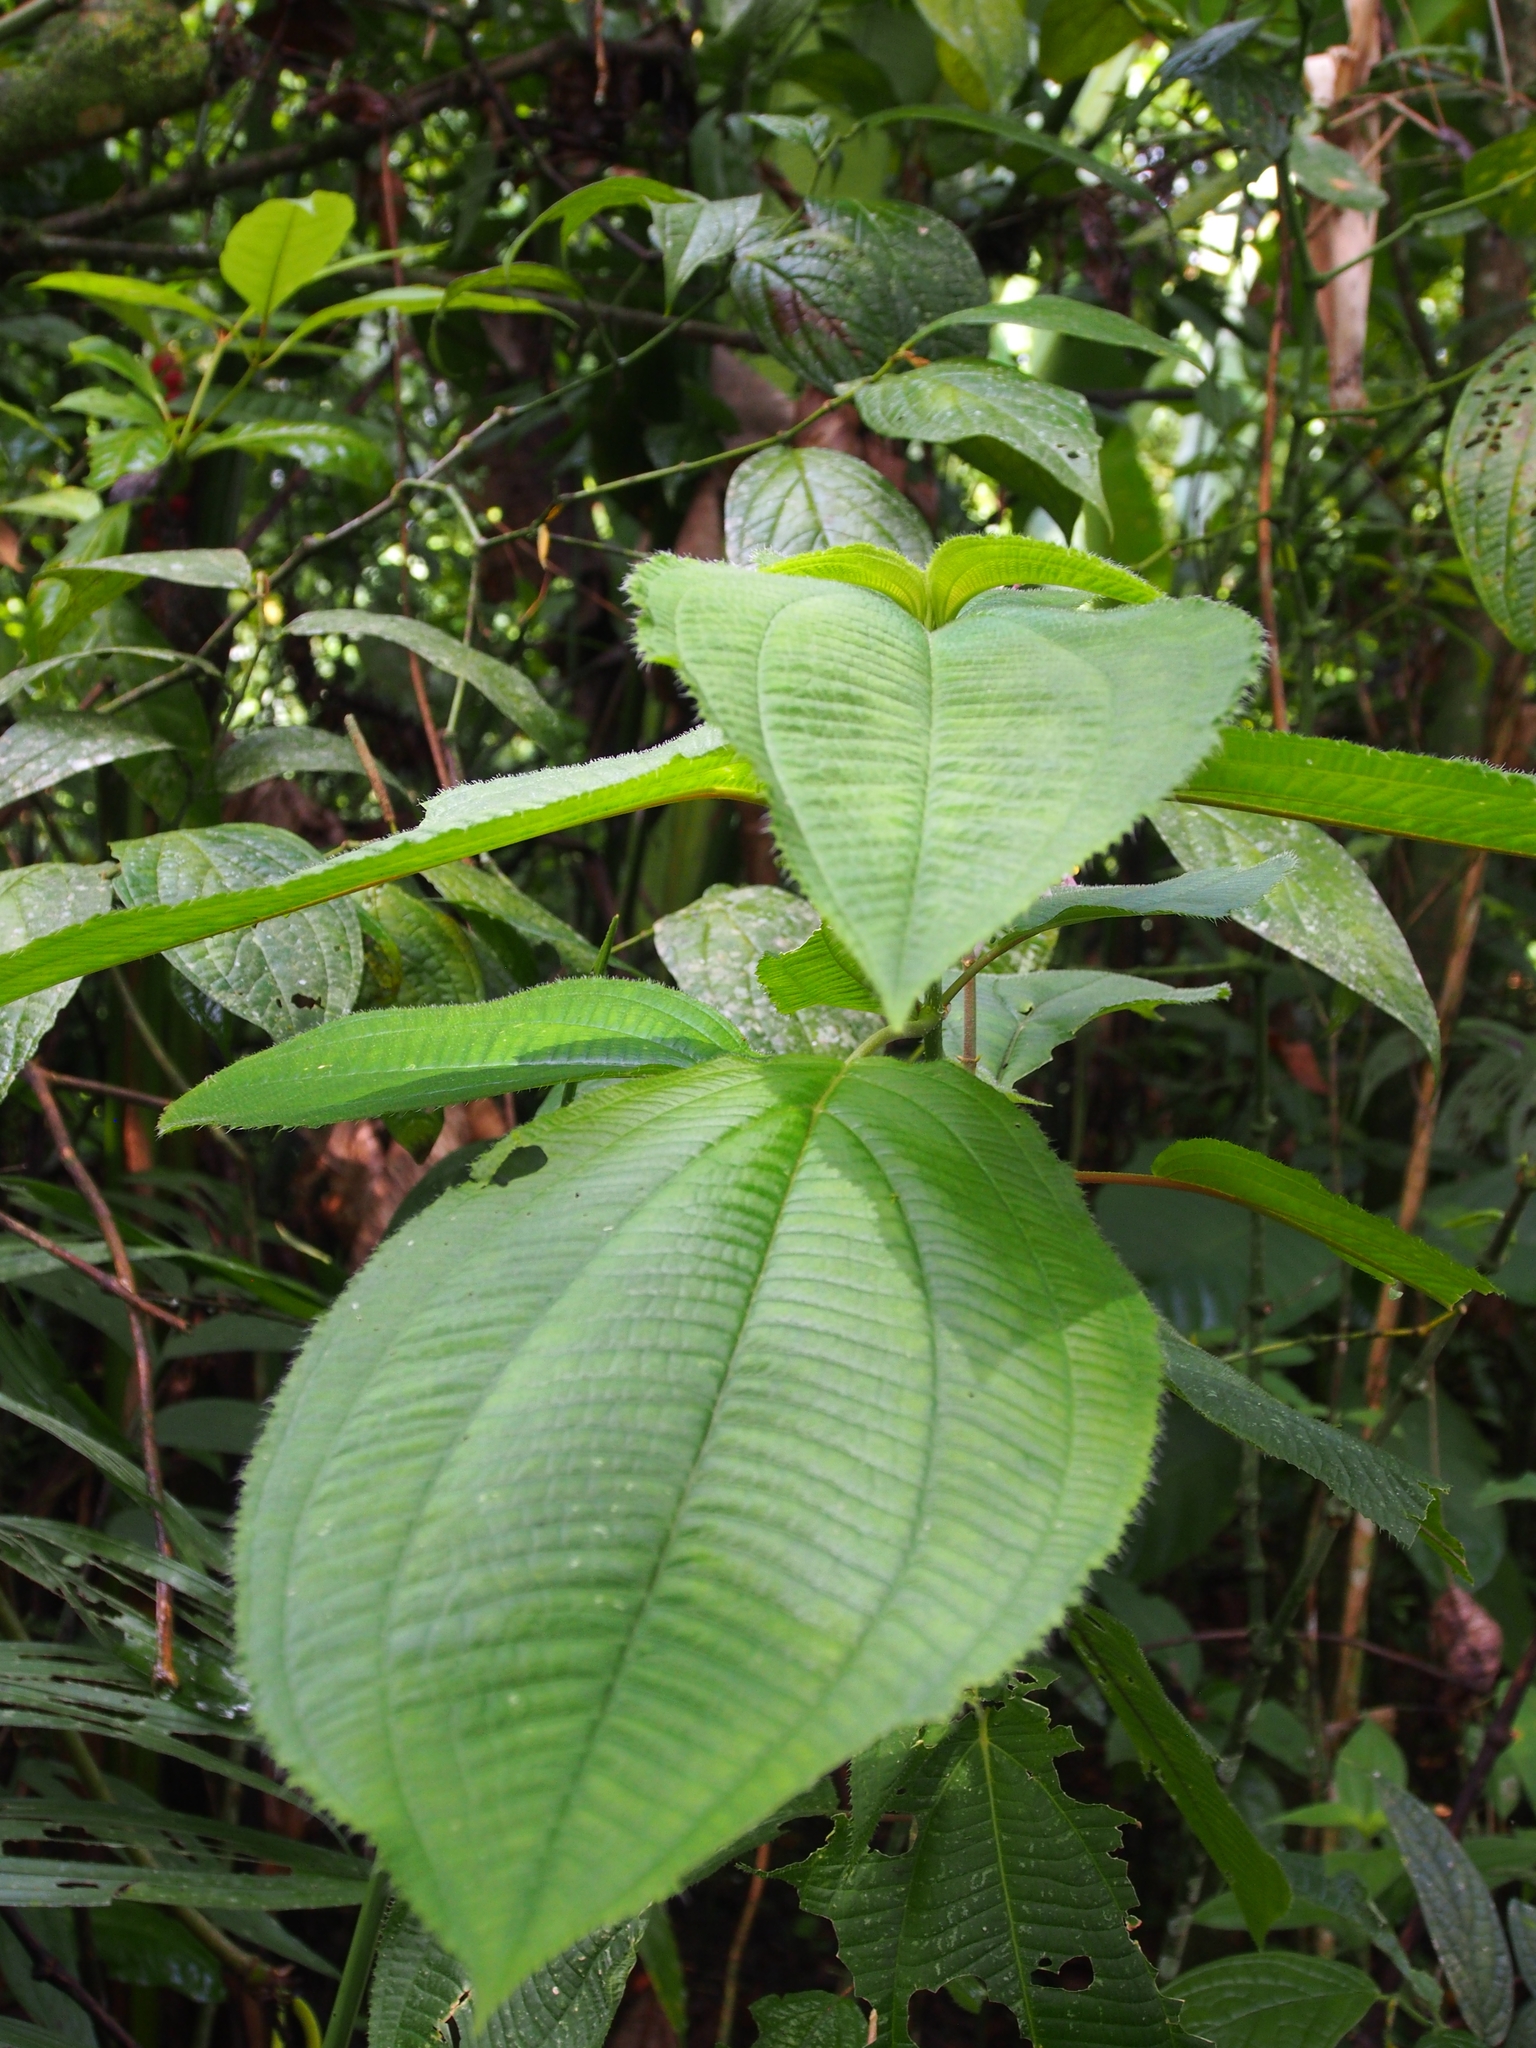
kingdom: Plantae
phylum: Tracheophyta
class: Magnoliopsida
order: Myrtales
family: Melastomataceae
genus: Miconia
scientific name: Miconia subcrustulata
